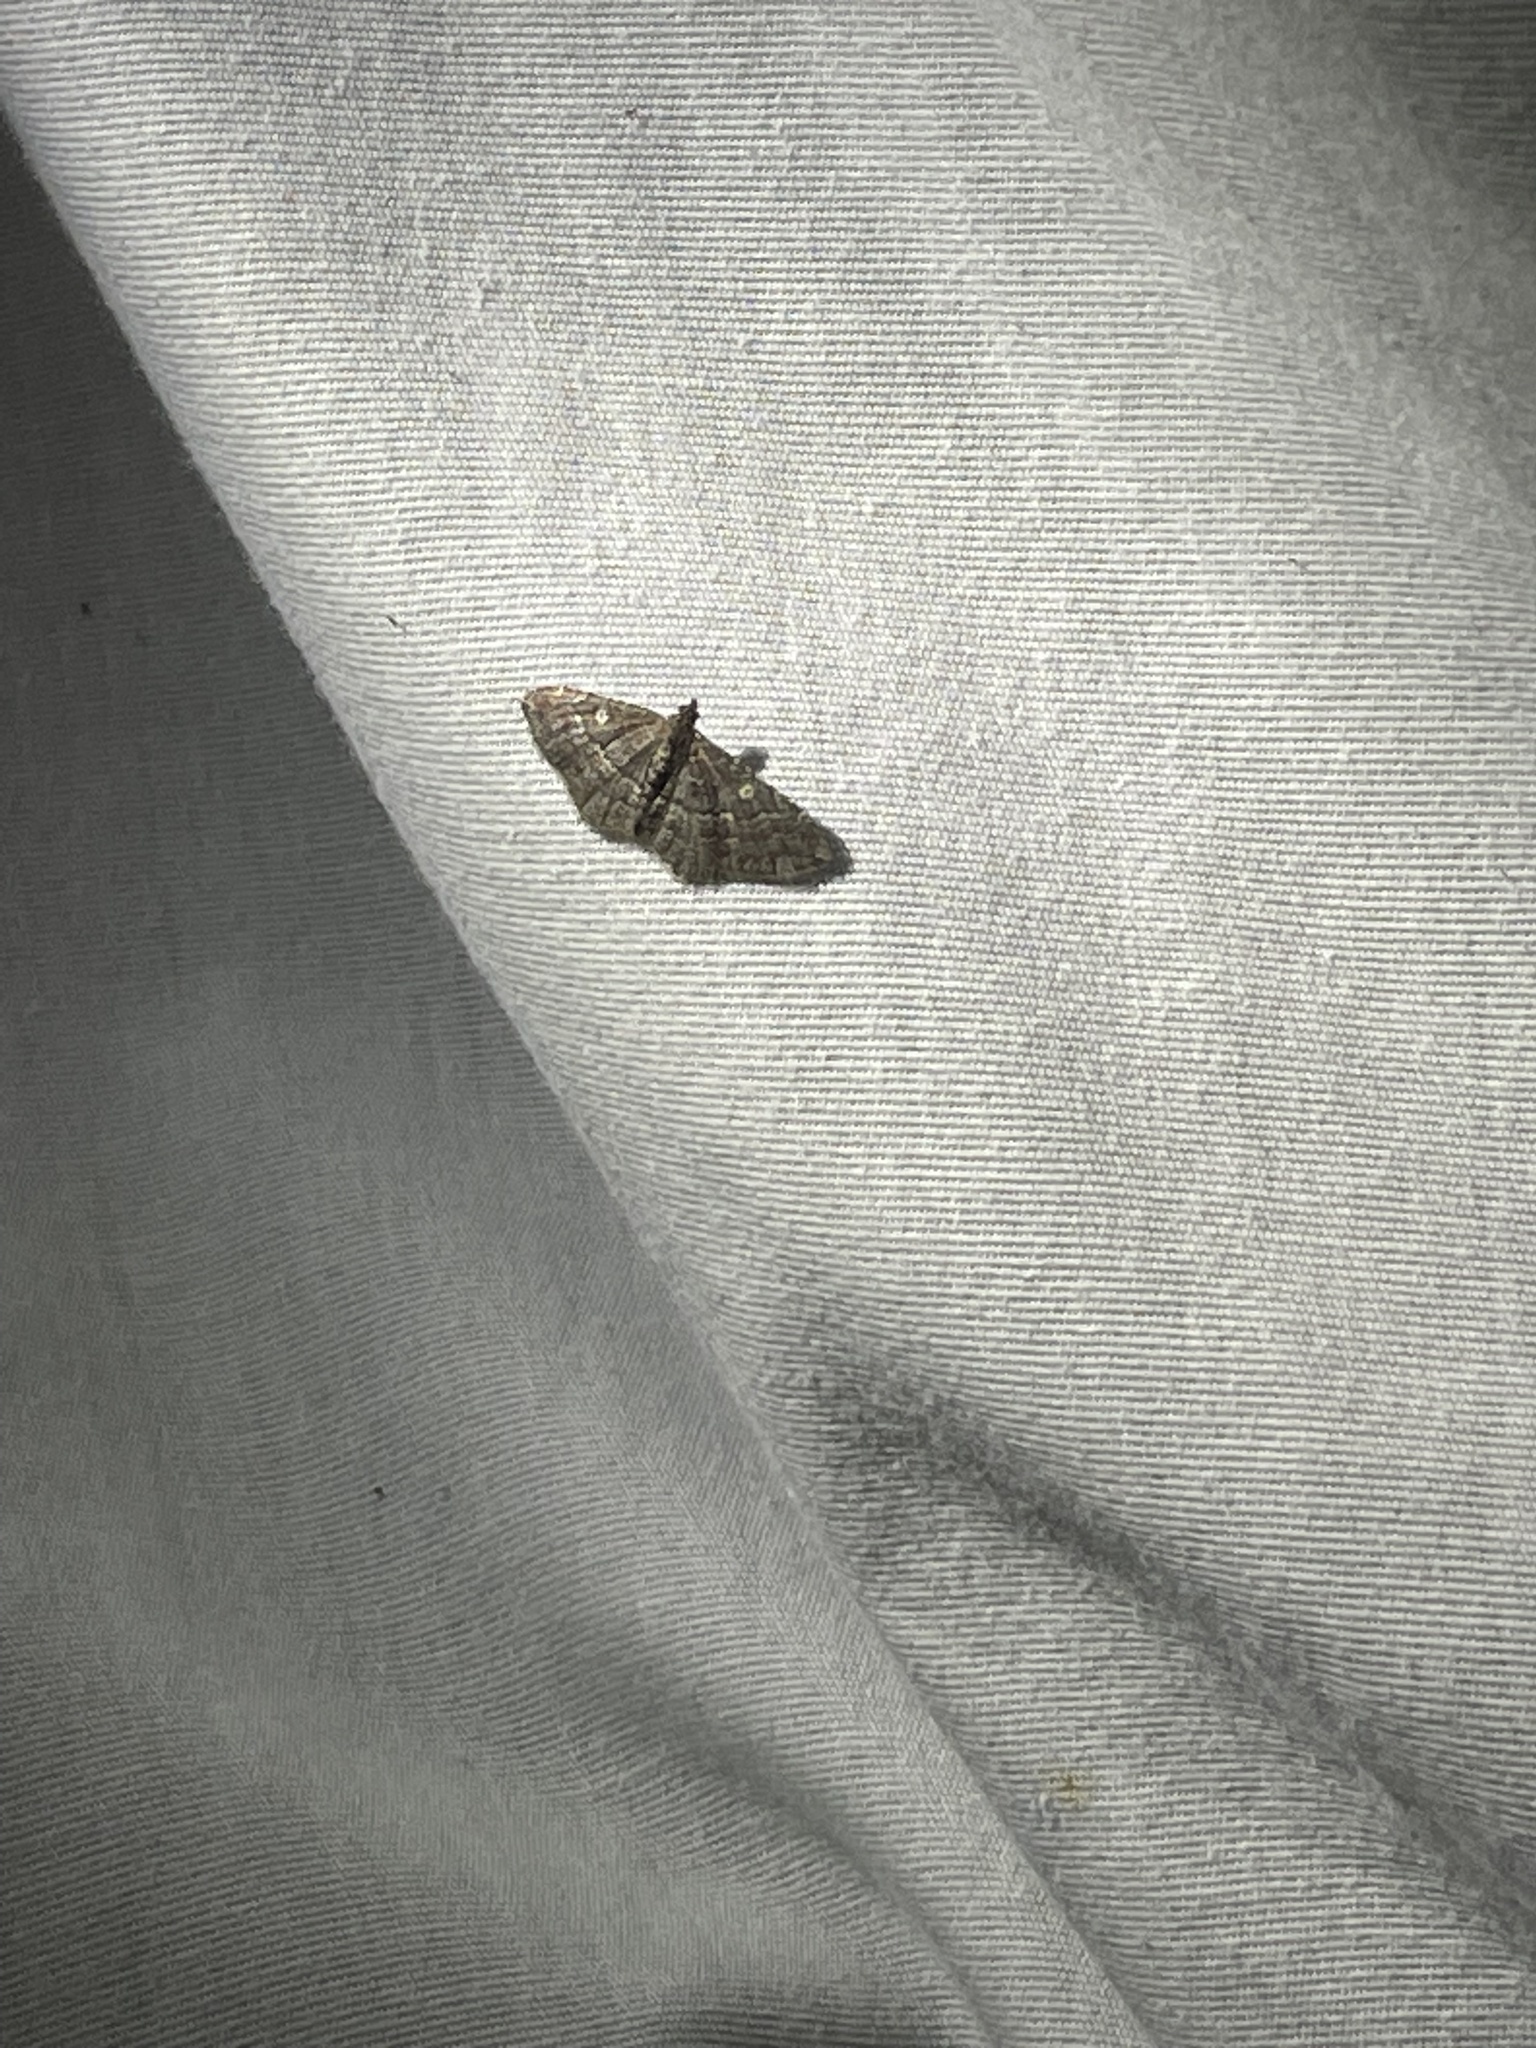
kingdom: Animalia
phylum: Arthropoda
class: Insecta
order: Lepidoptera
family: Geometridae
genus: Orthonama
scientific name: Orthonama obstipata
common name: The gem
